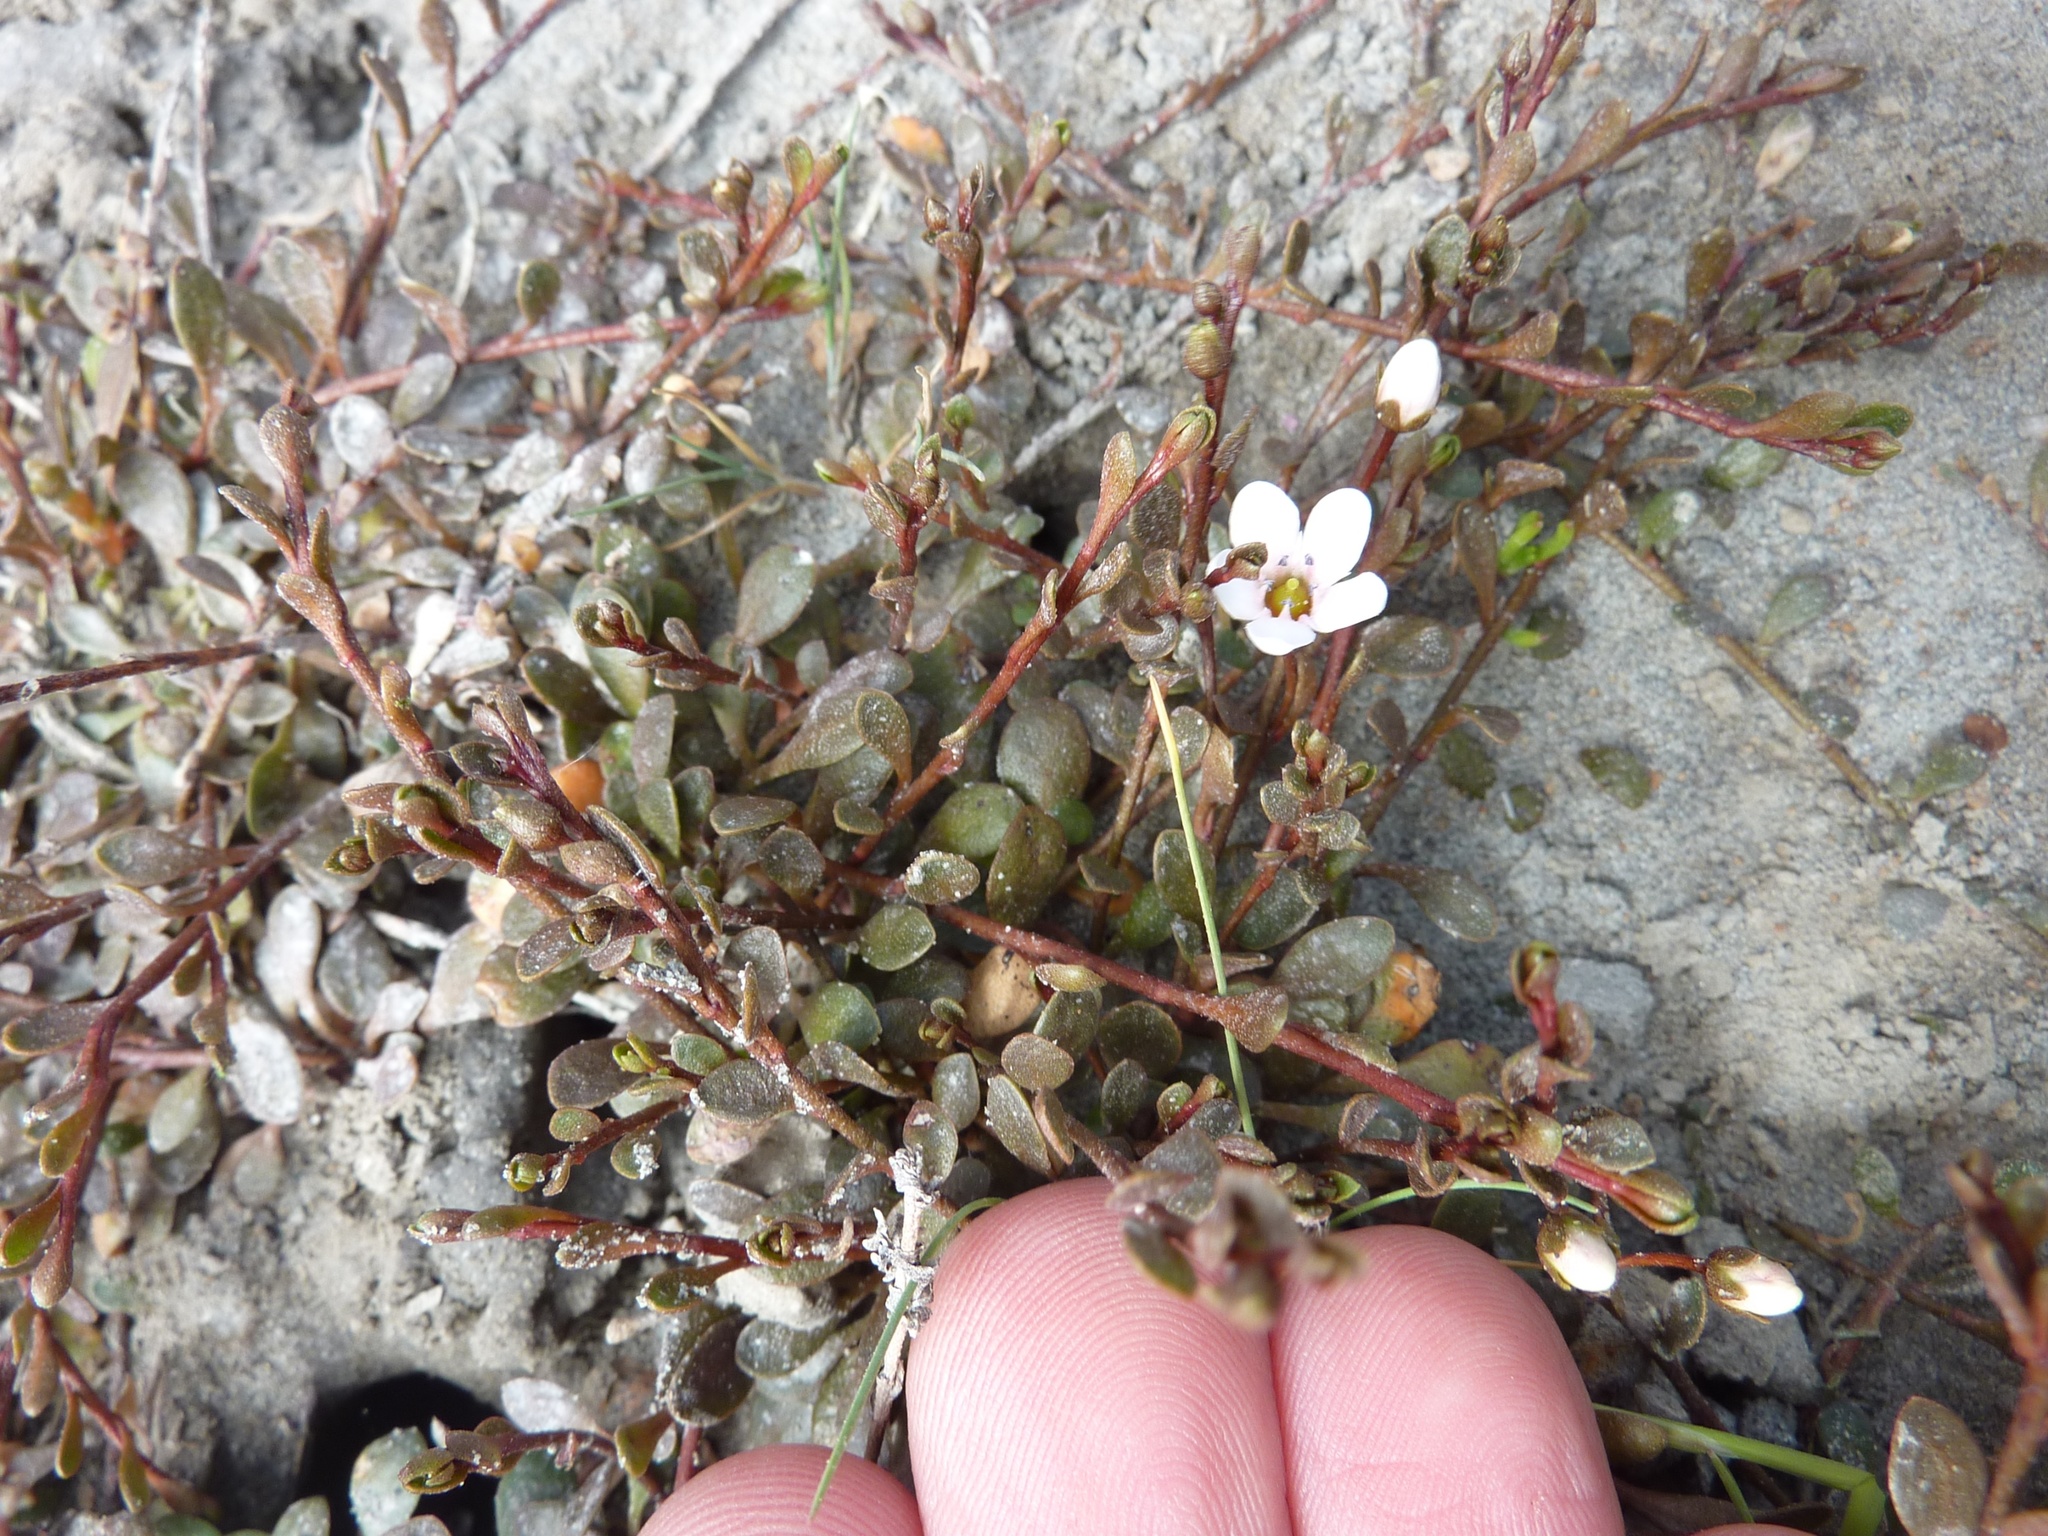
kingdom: Plantae
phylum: Tracheophyta
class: Magnoliopsida
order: Ericales
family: Primulaceae
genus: Samolus
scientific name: Samolus repens
